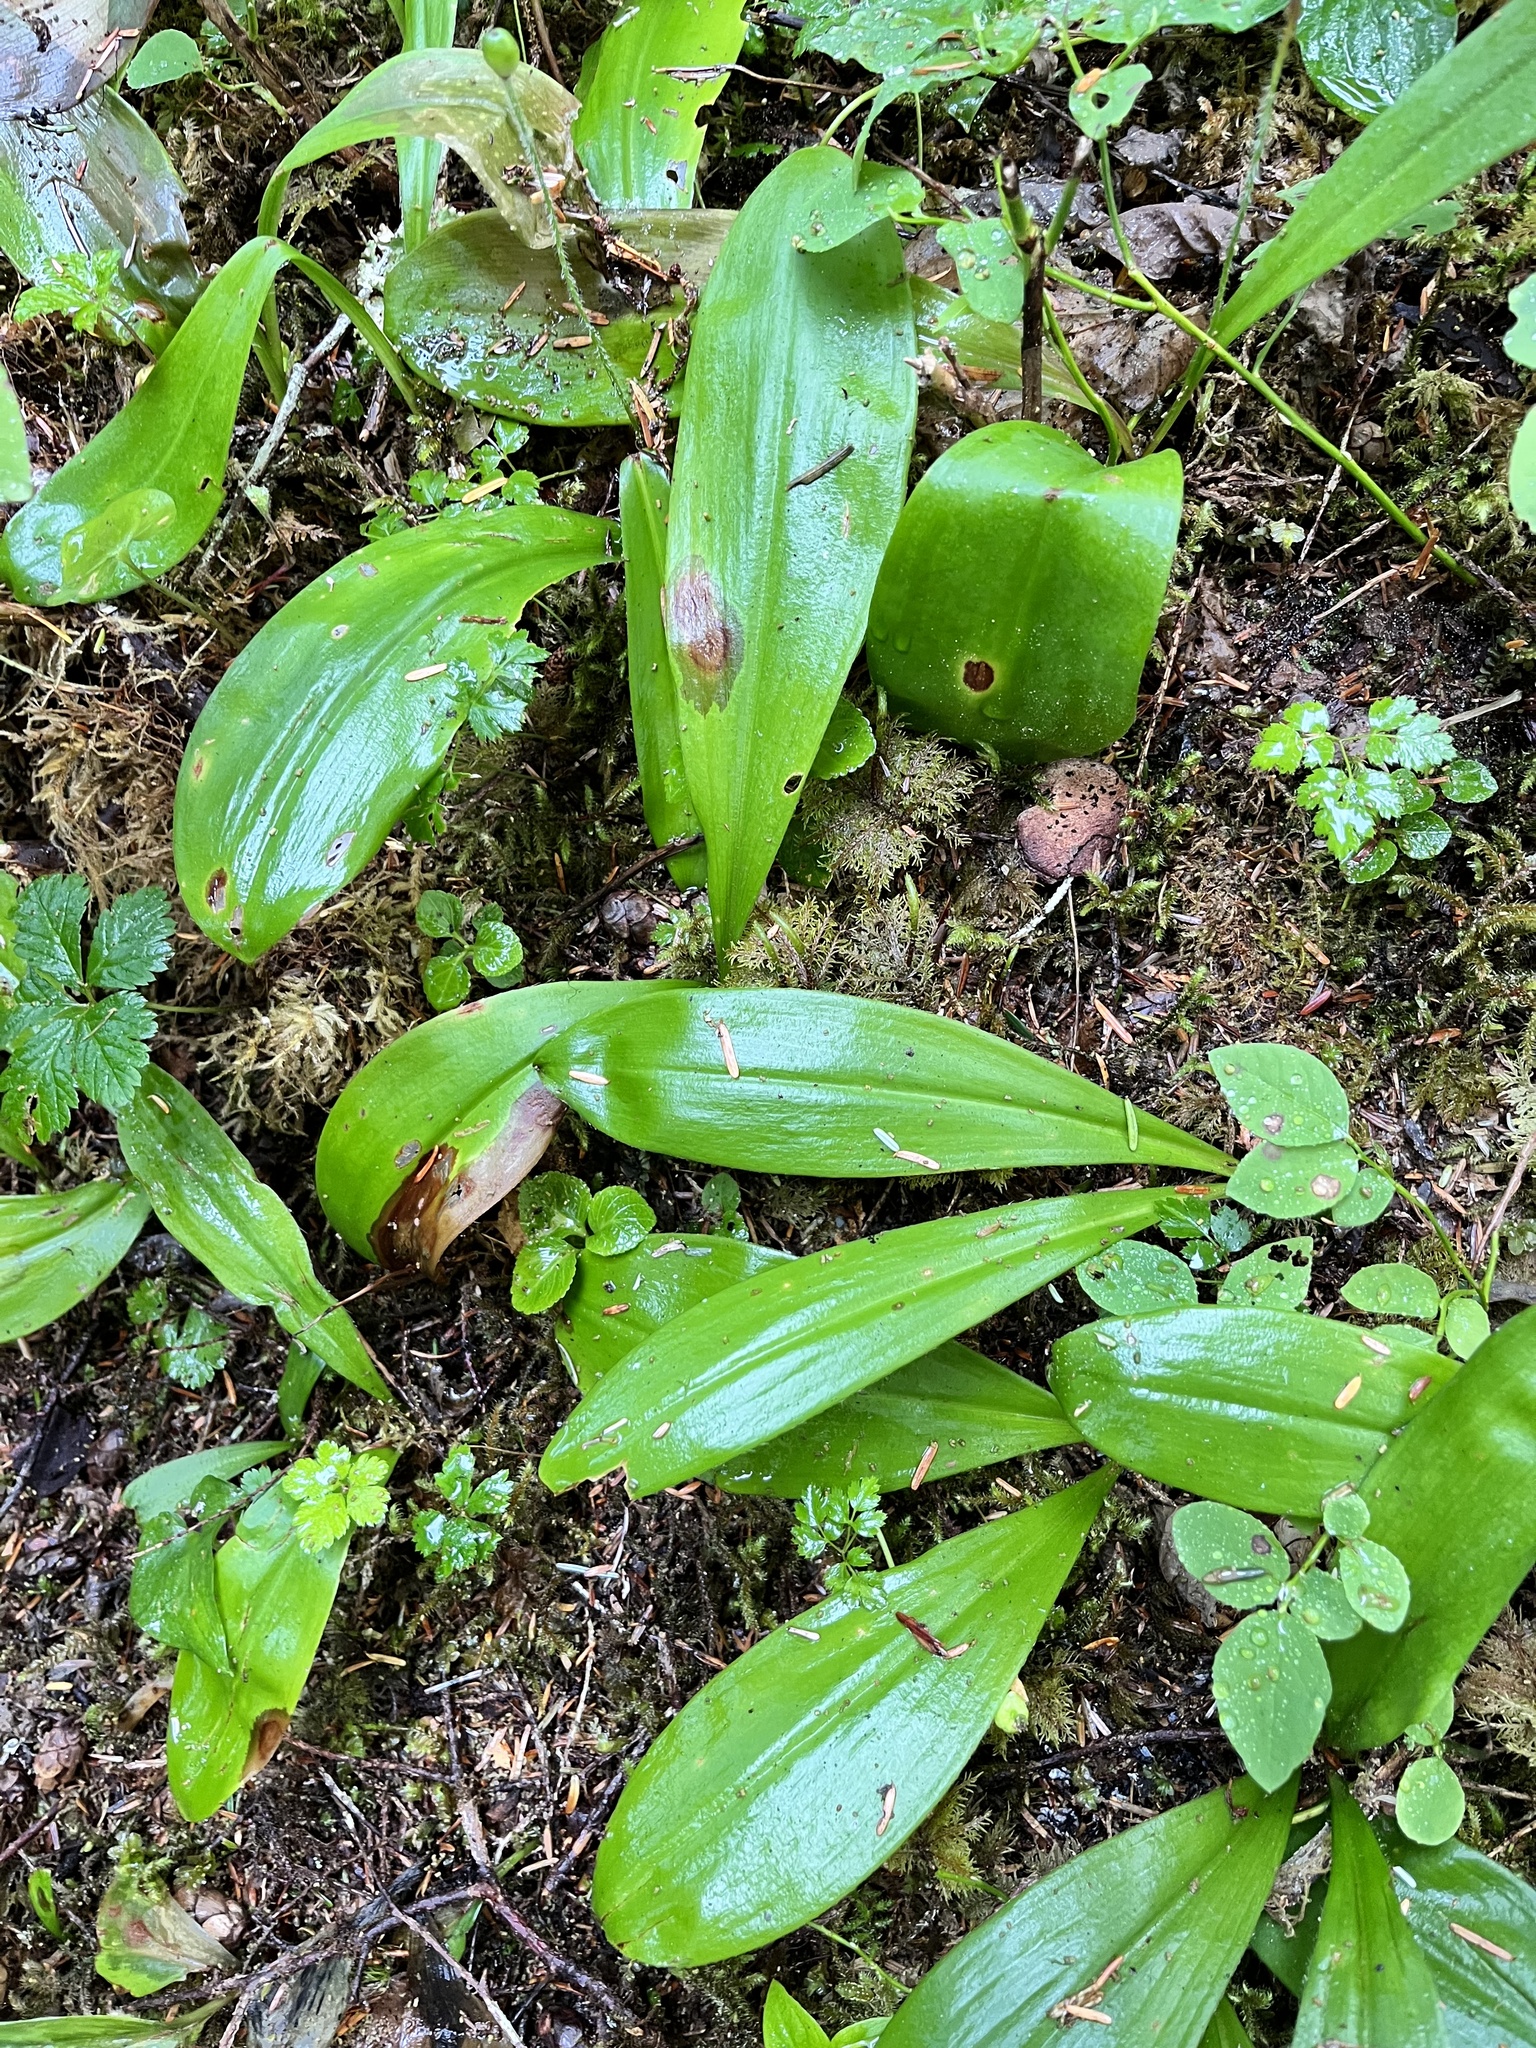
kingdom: Plantae
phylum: Tracheophyta
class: Liliopsida
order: Liliales
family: Liliaceae
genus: Clintonia
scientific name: Clintonia uniflora
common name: Queen's cup
